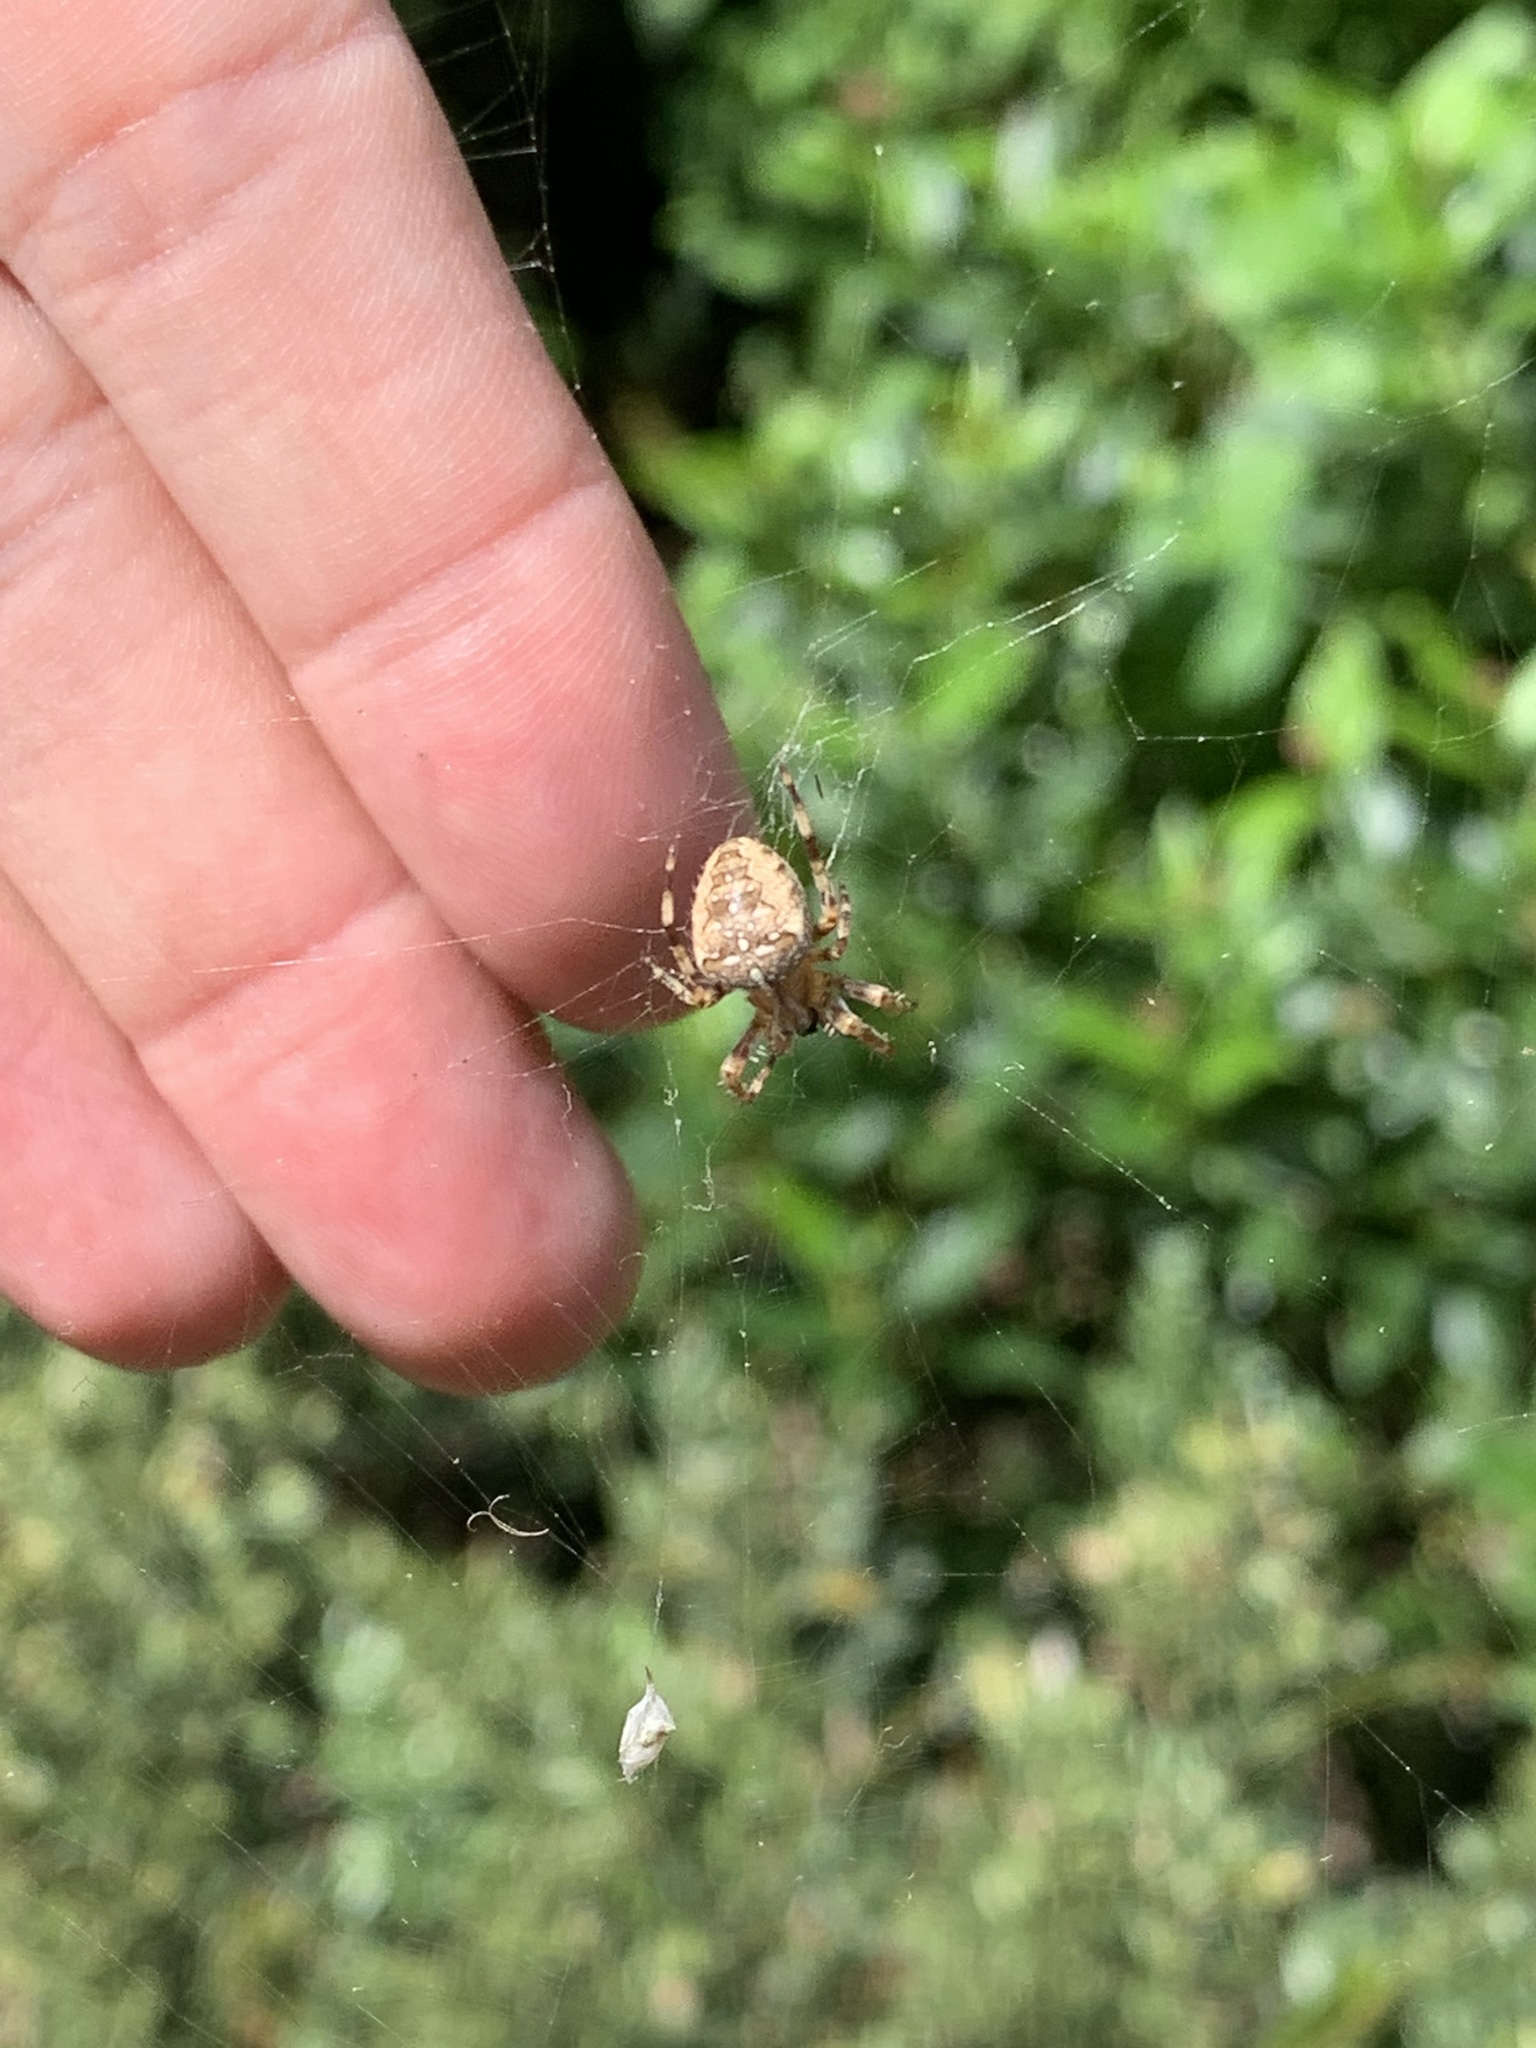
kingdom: Animalia
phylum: Arthropoda
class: Arachnida
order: Araneae
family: Araneidae
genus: Araneus
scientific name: Araneus diadematus
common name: Cross orbweaver
